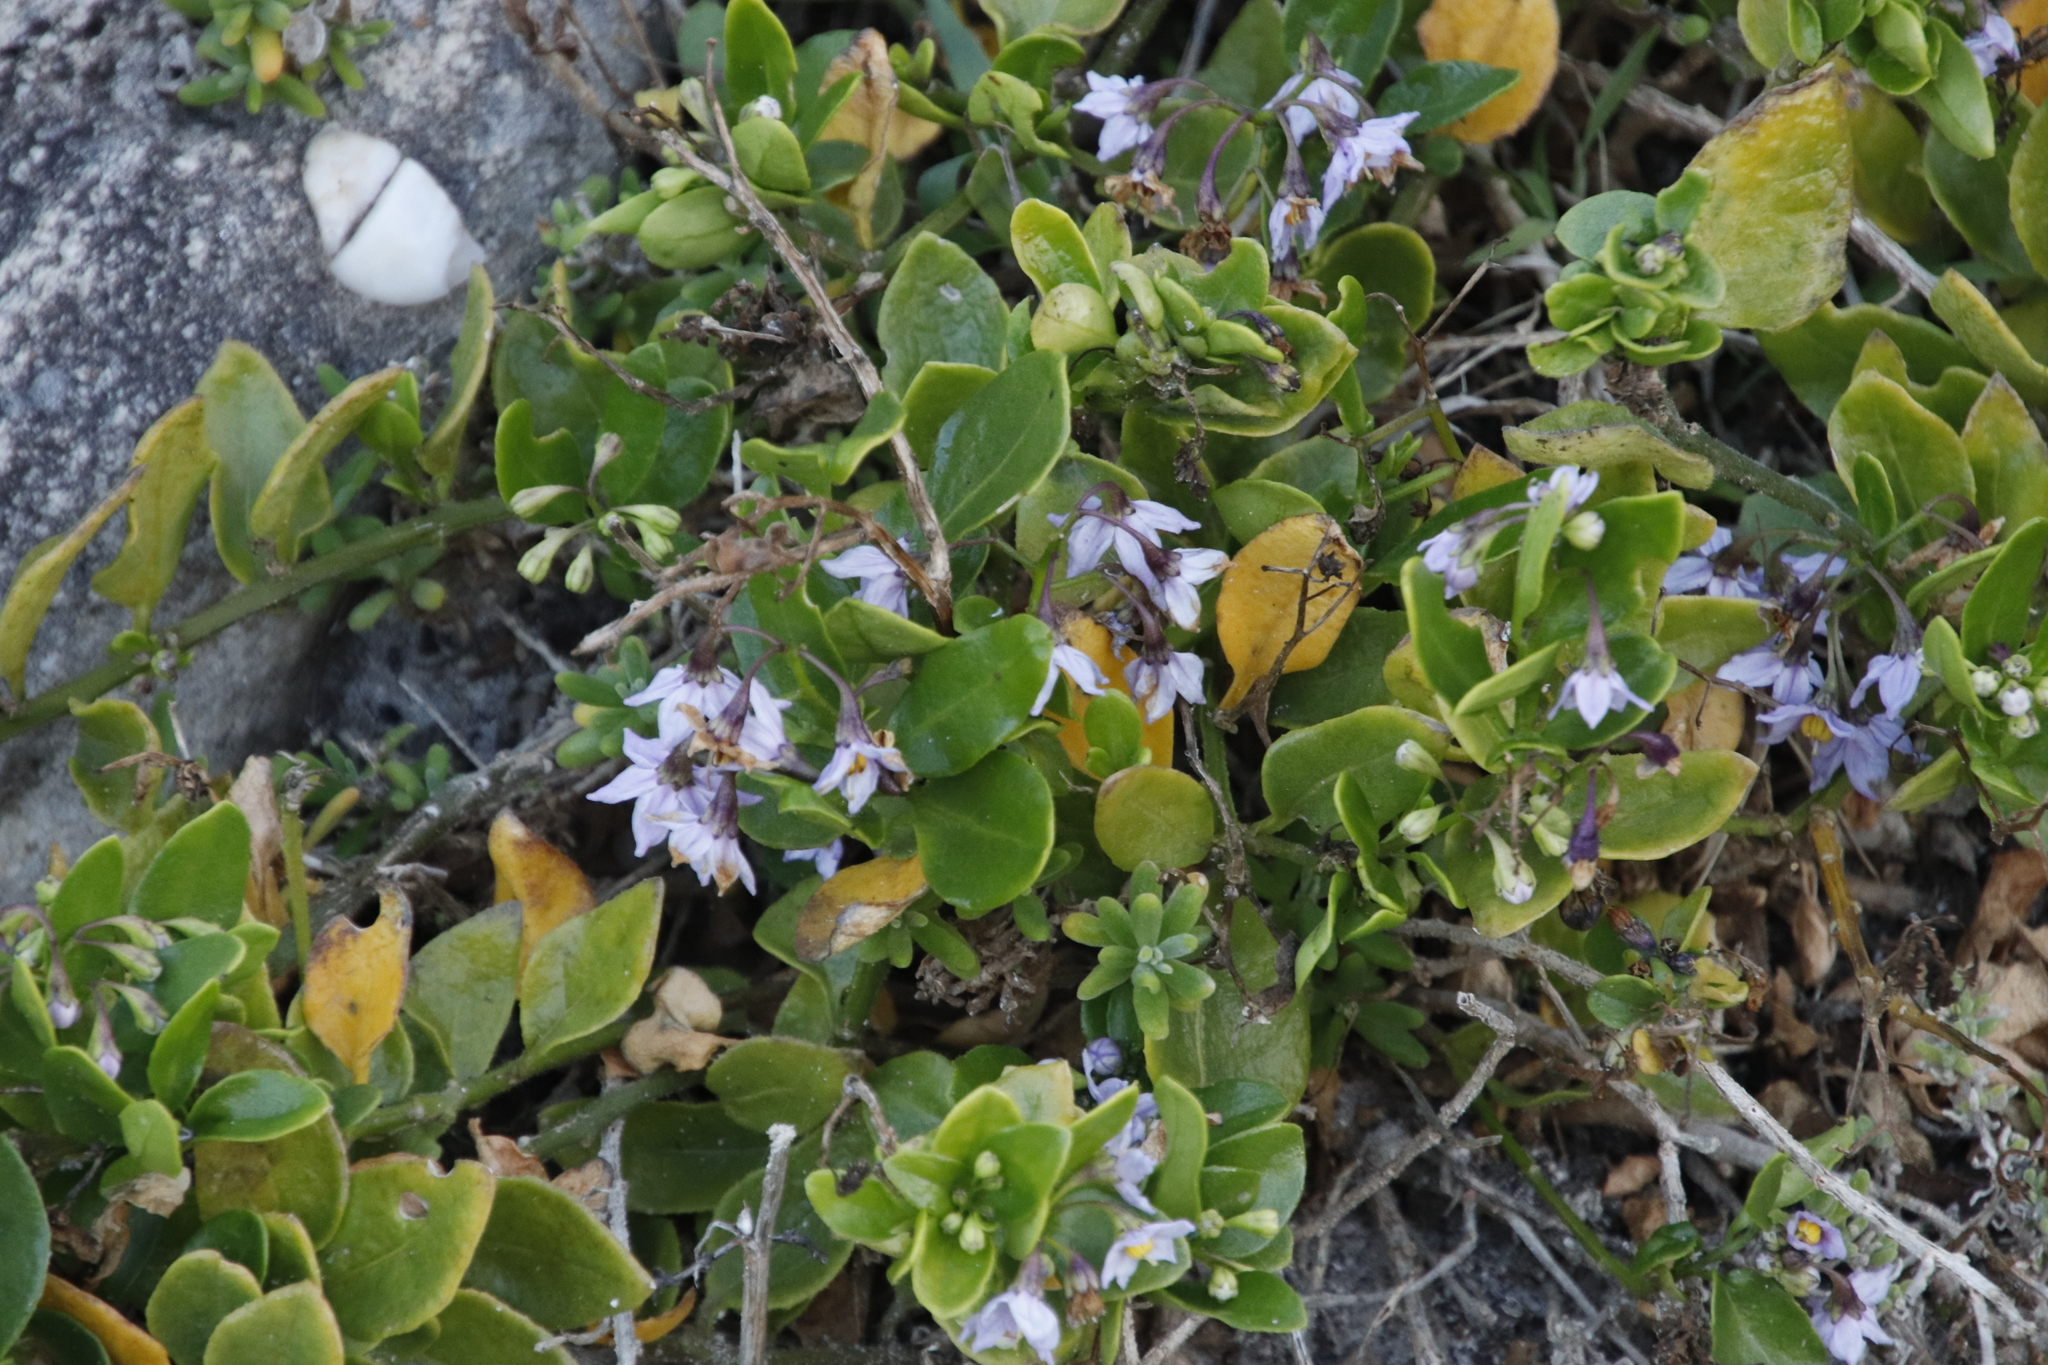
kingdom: Plantae
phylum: Tracheophyta
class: Magnoliopsida
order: Solanales
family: Solanaceae
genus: Solanum
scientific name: Solanum africanum
